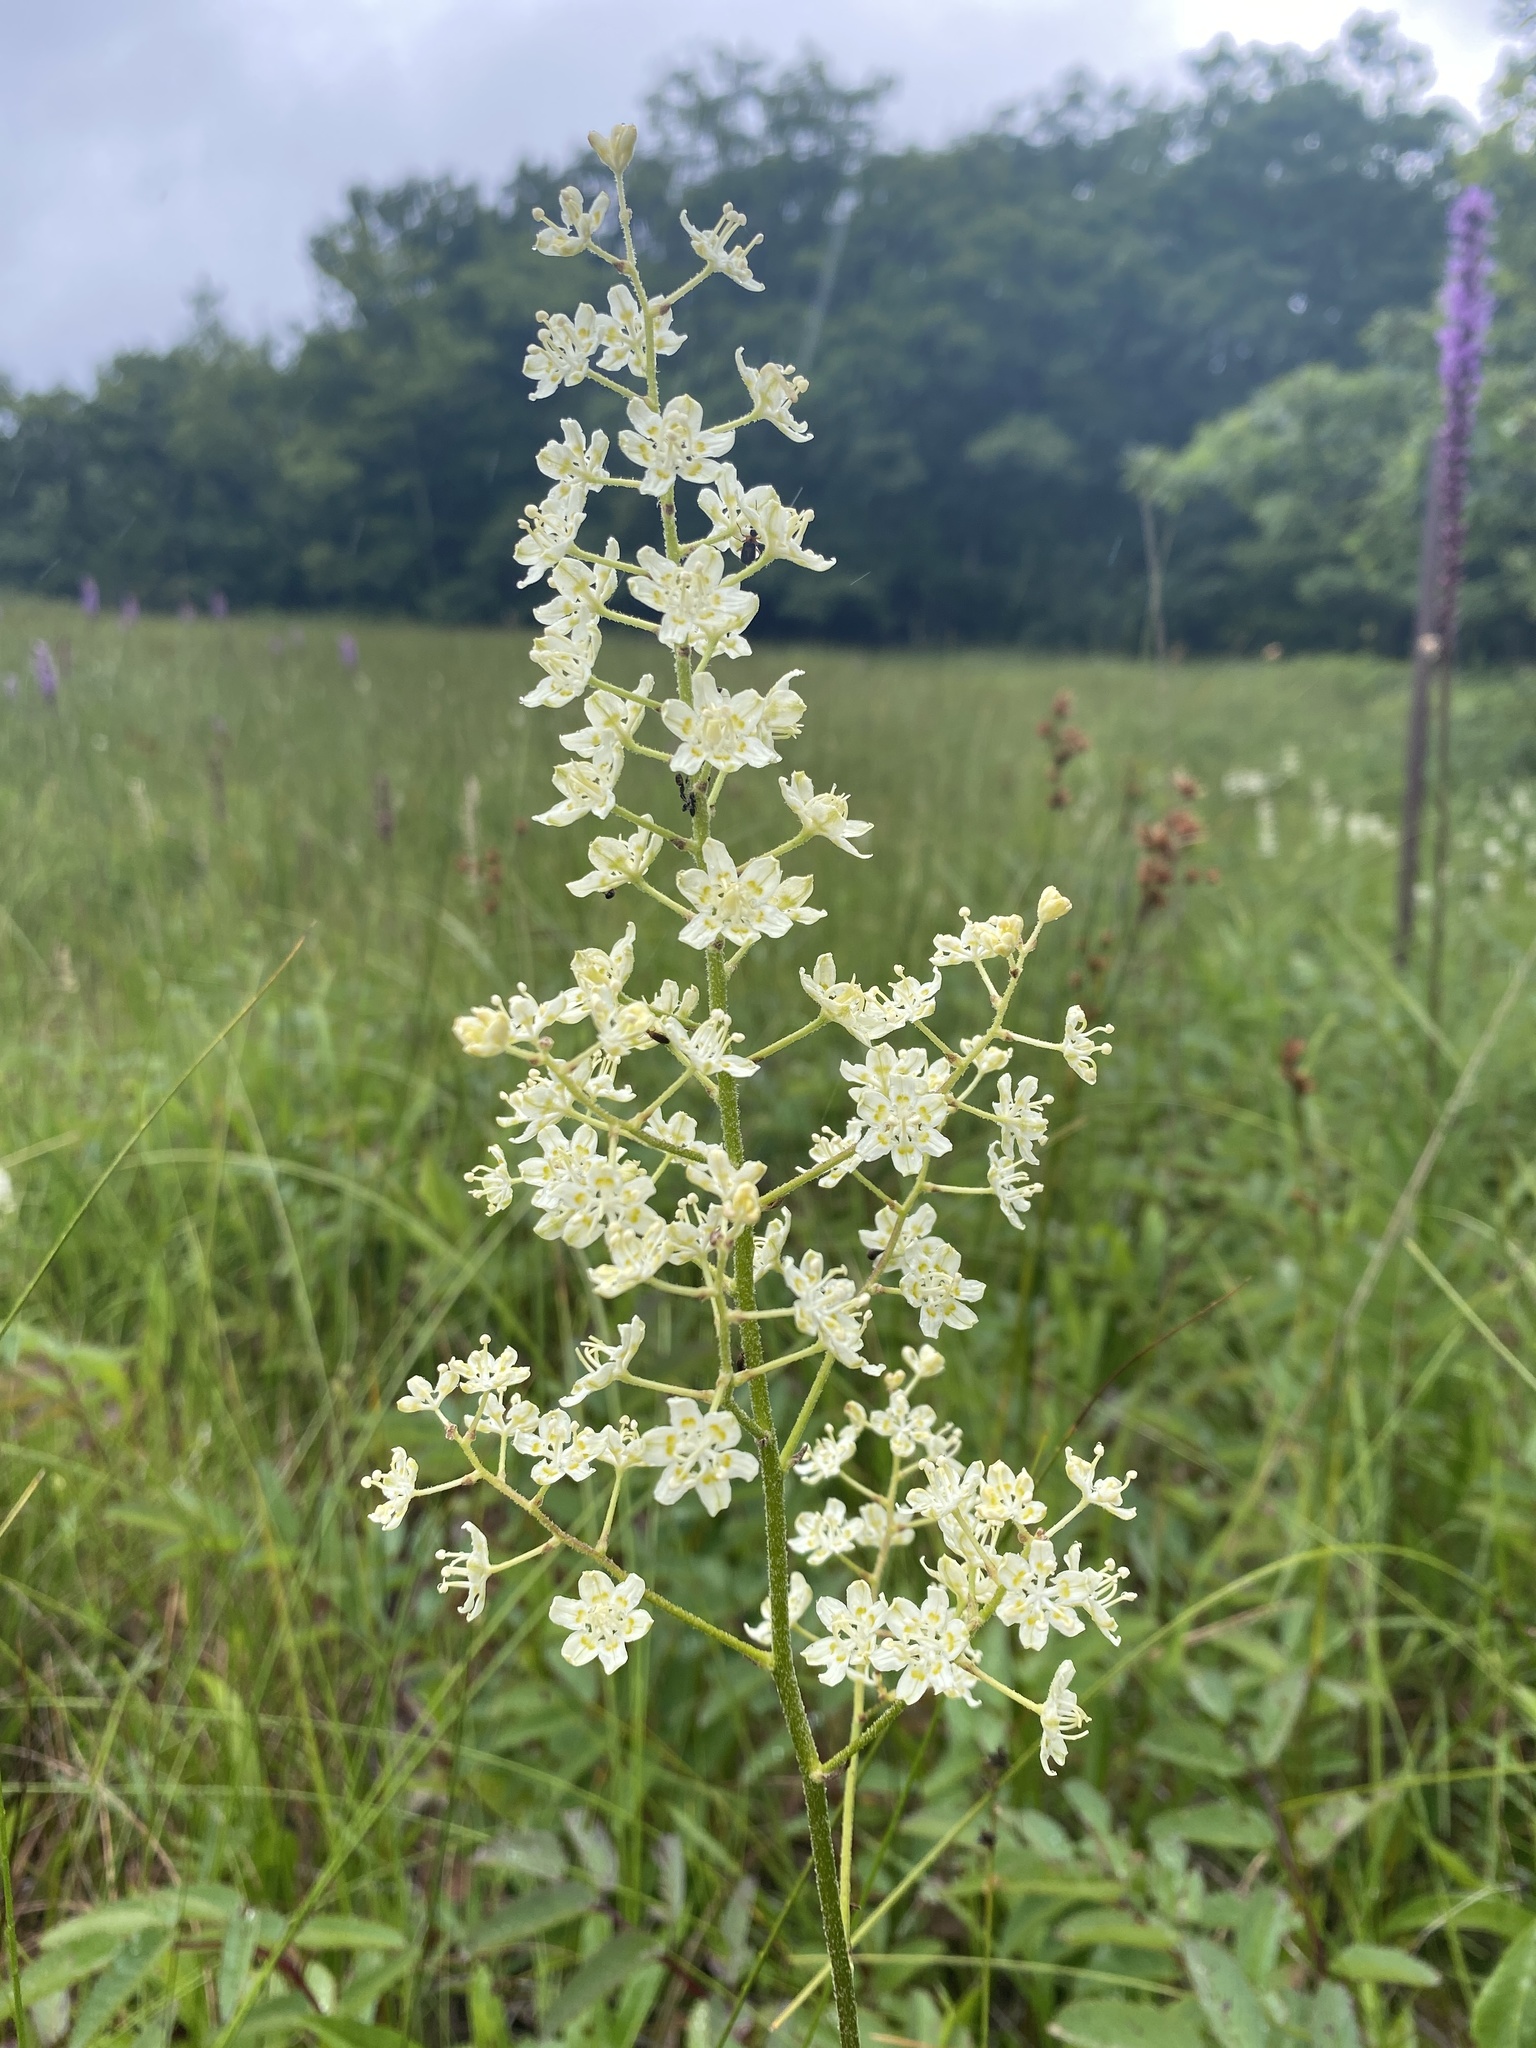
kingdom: Plantae
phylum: Tracheophyta
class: Liliopsida
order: Liliales
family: Melanthiaceae
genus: Melanthium
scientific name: Melanthium virginicum
